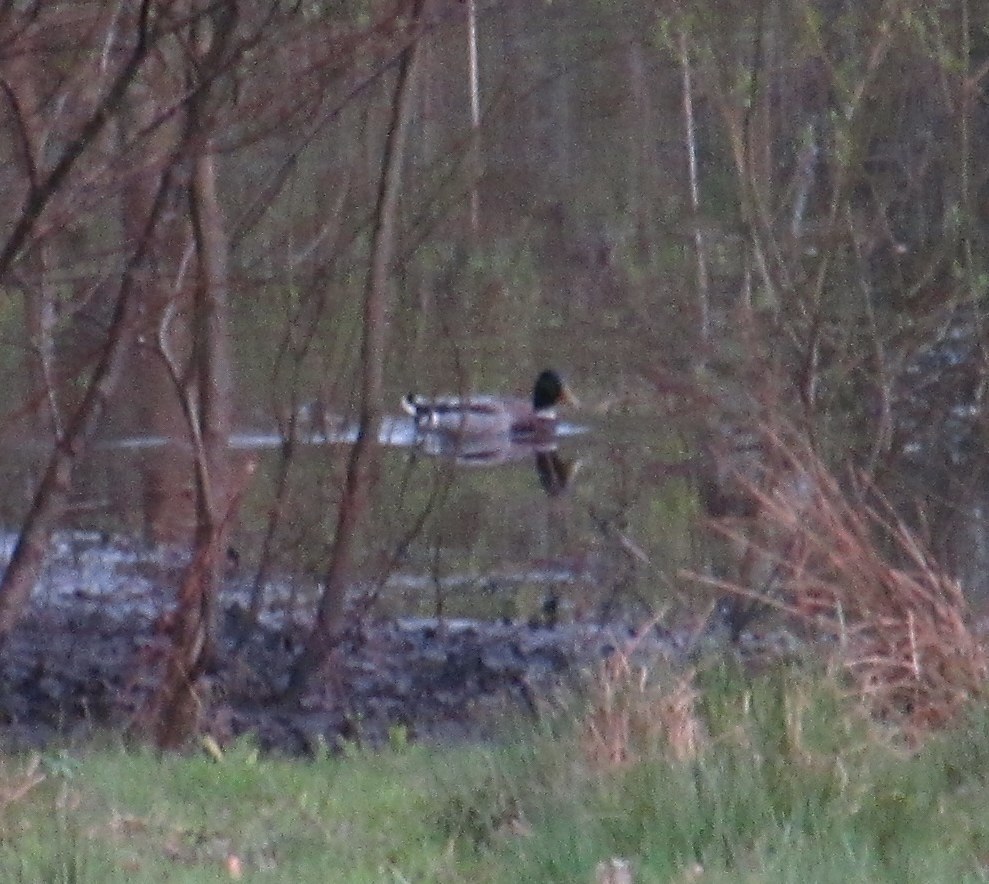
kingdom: Animalia
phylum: Chordata
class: Aves
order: Anseriformes
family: Anatidae
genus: Anas
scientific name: Anas platyrhynchos
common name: Mallard
